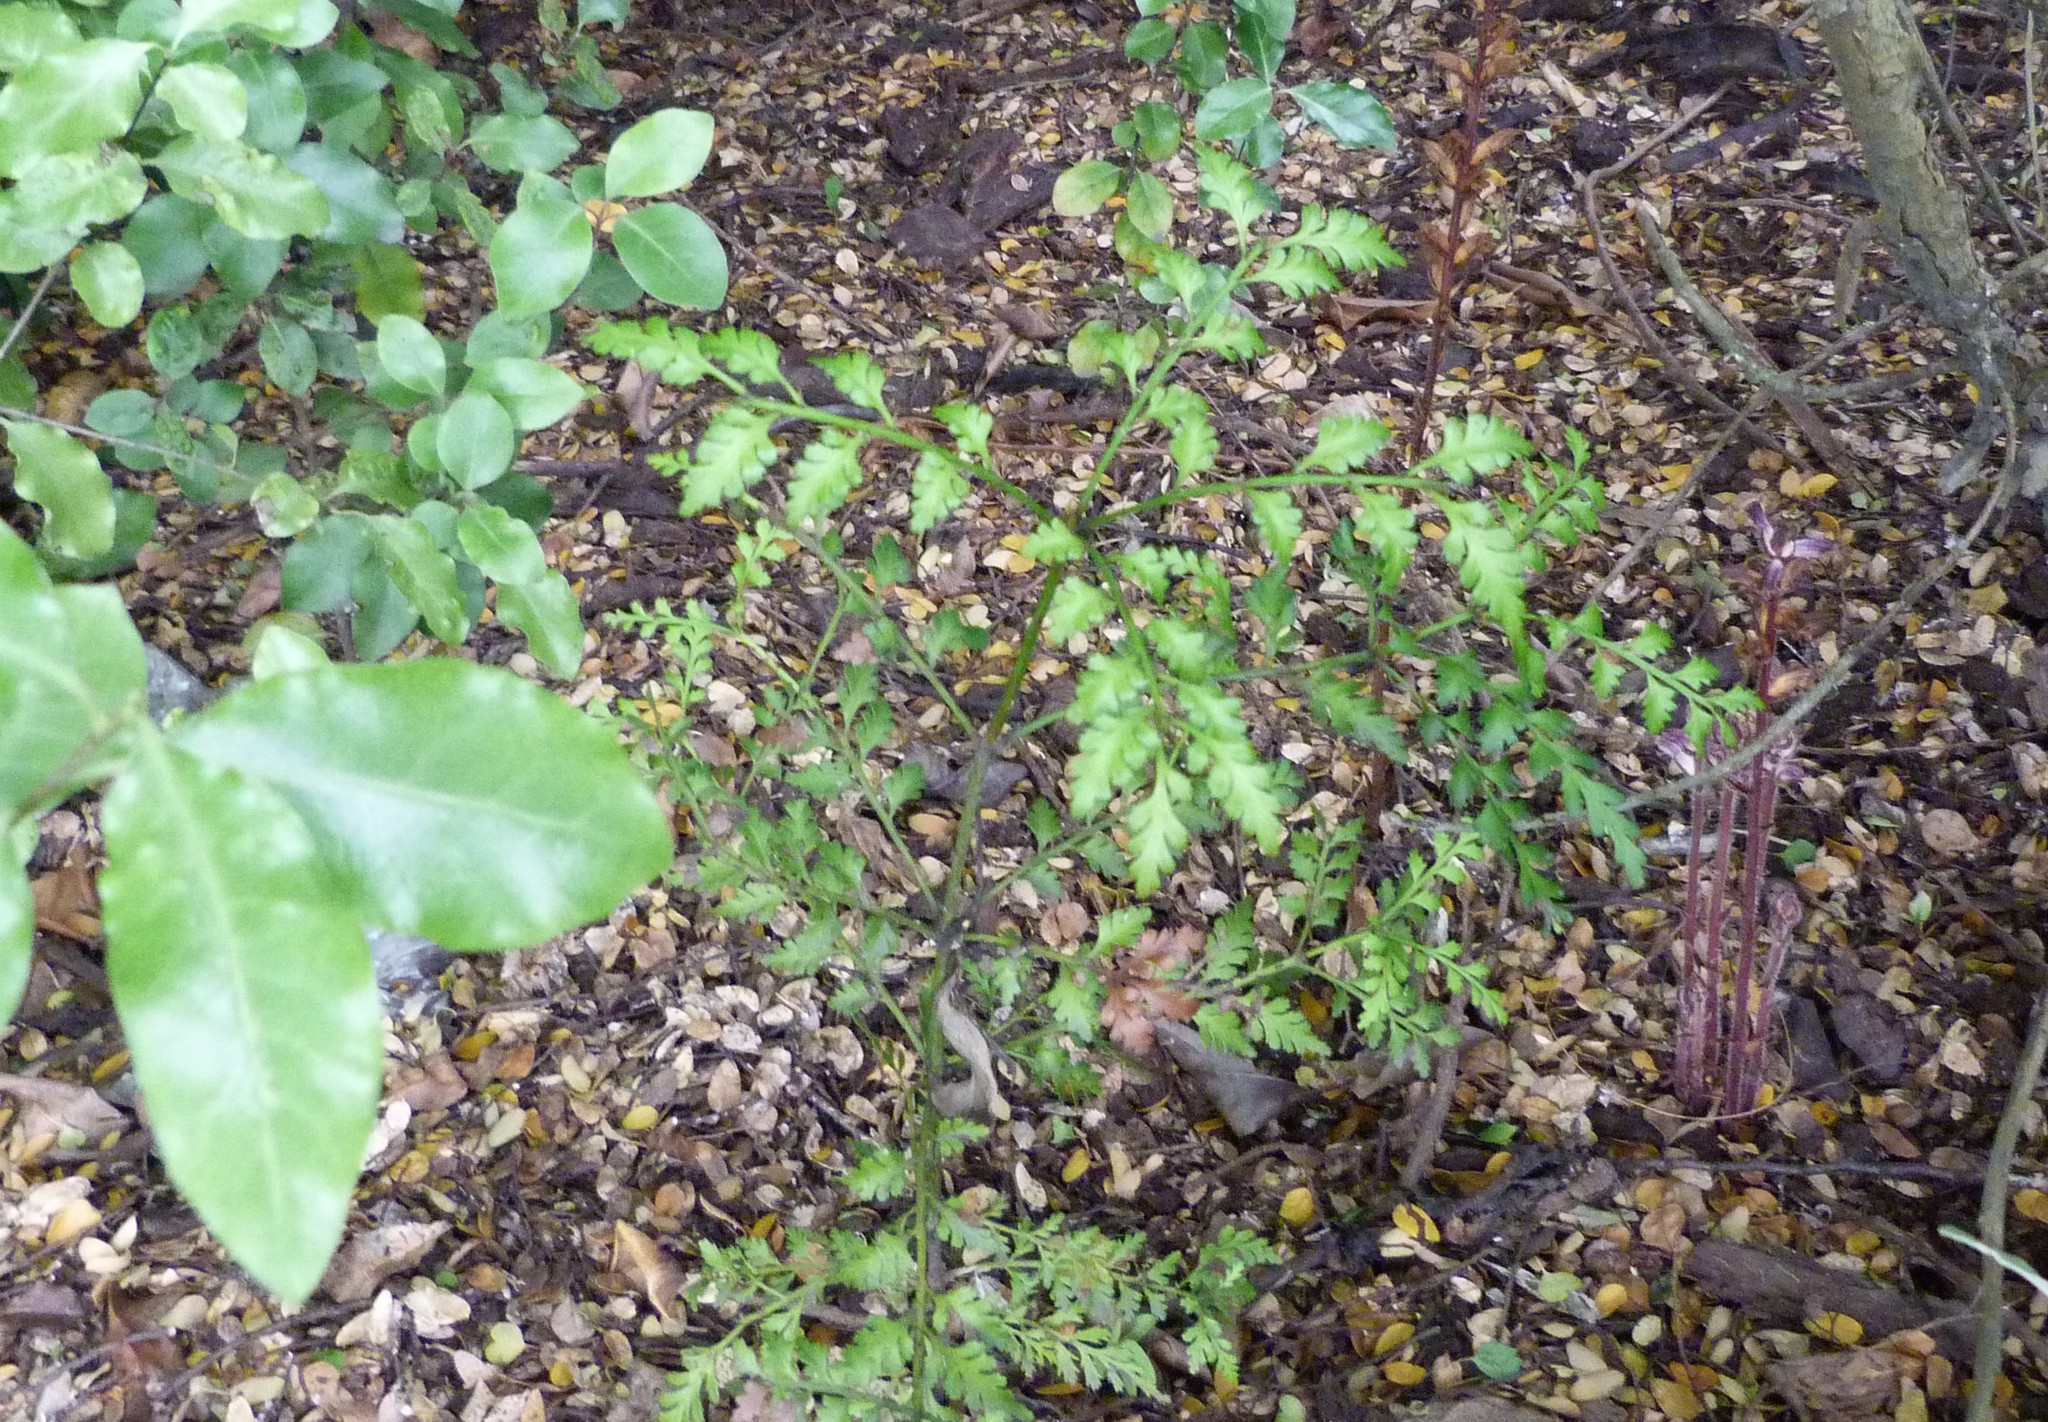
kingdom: Plantae
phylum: Tracheophyta
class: Pinopsida
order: Pinales
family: Phyllocladaceae
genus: Phyllocladus
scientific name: Phyllocladus trichomanoides
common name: Celery pine
